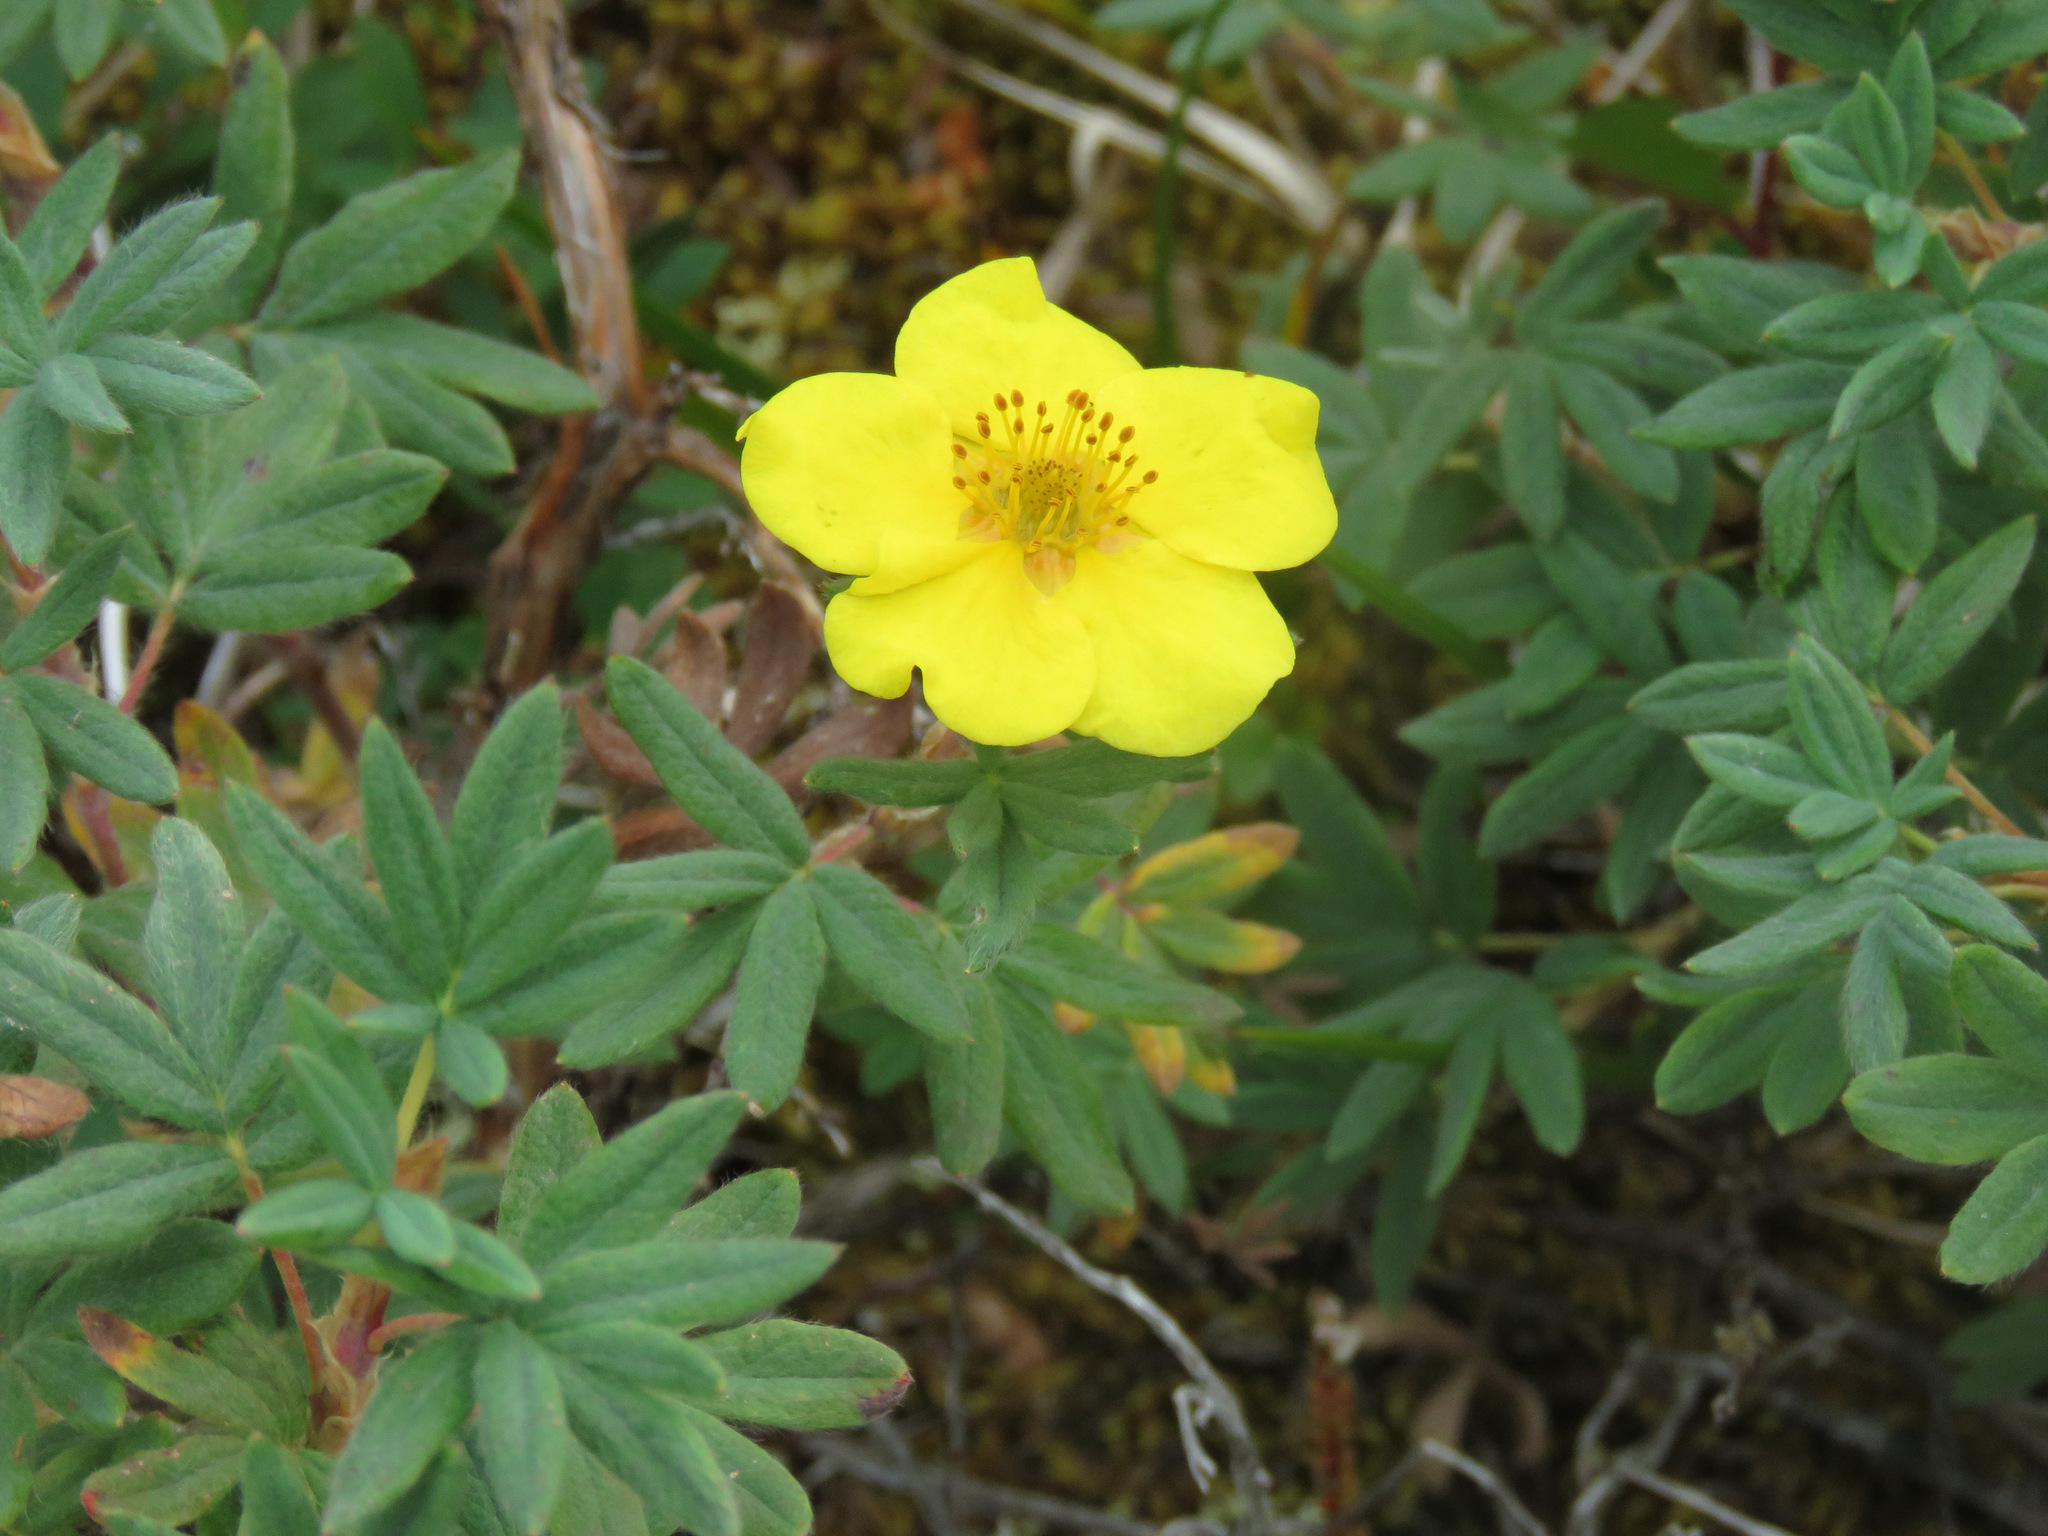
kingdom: Plantae
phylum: Tracheophyta
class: Magnoliopsida
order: Rosales
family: Rosaceae
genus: Dasiphora
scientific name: Dasiphora fruticosa
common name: Shrubby cinquefoil
